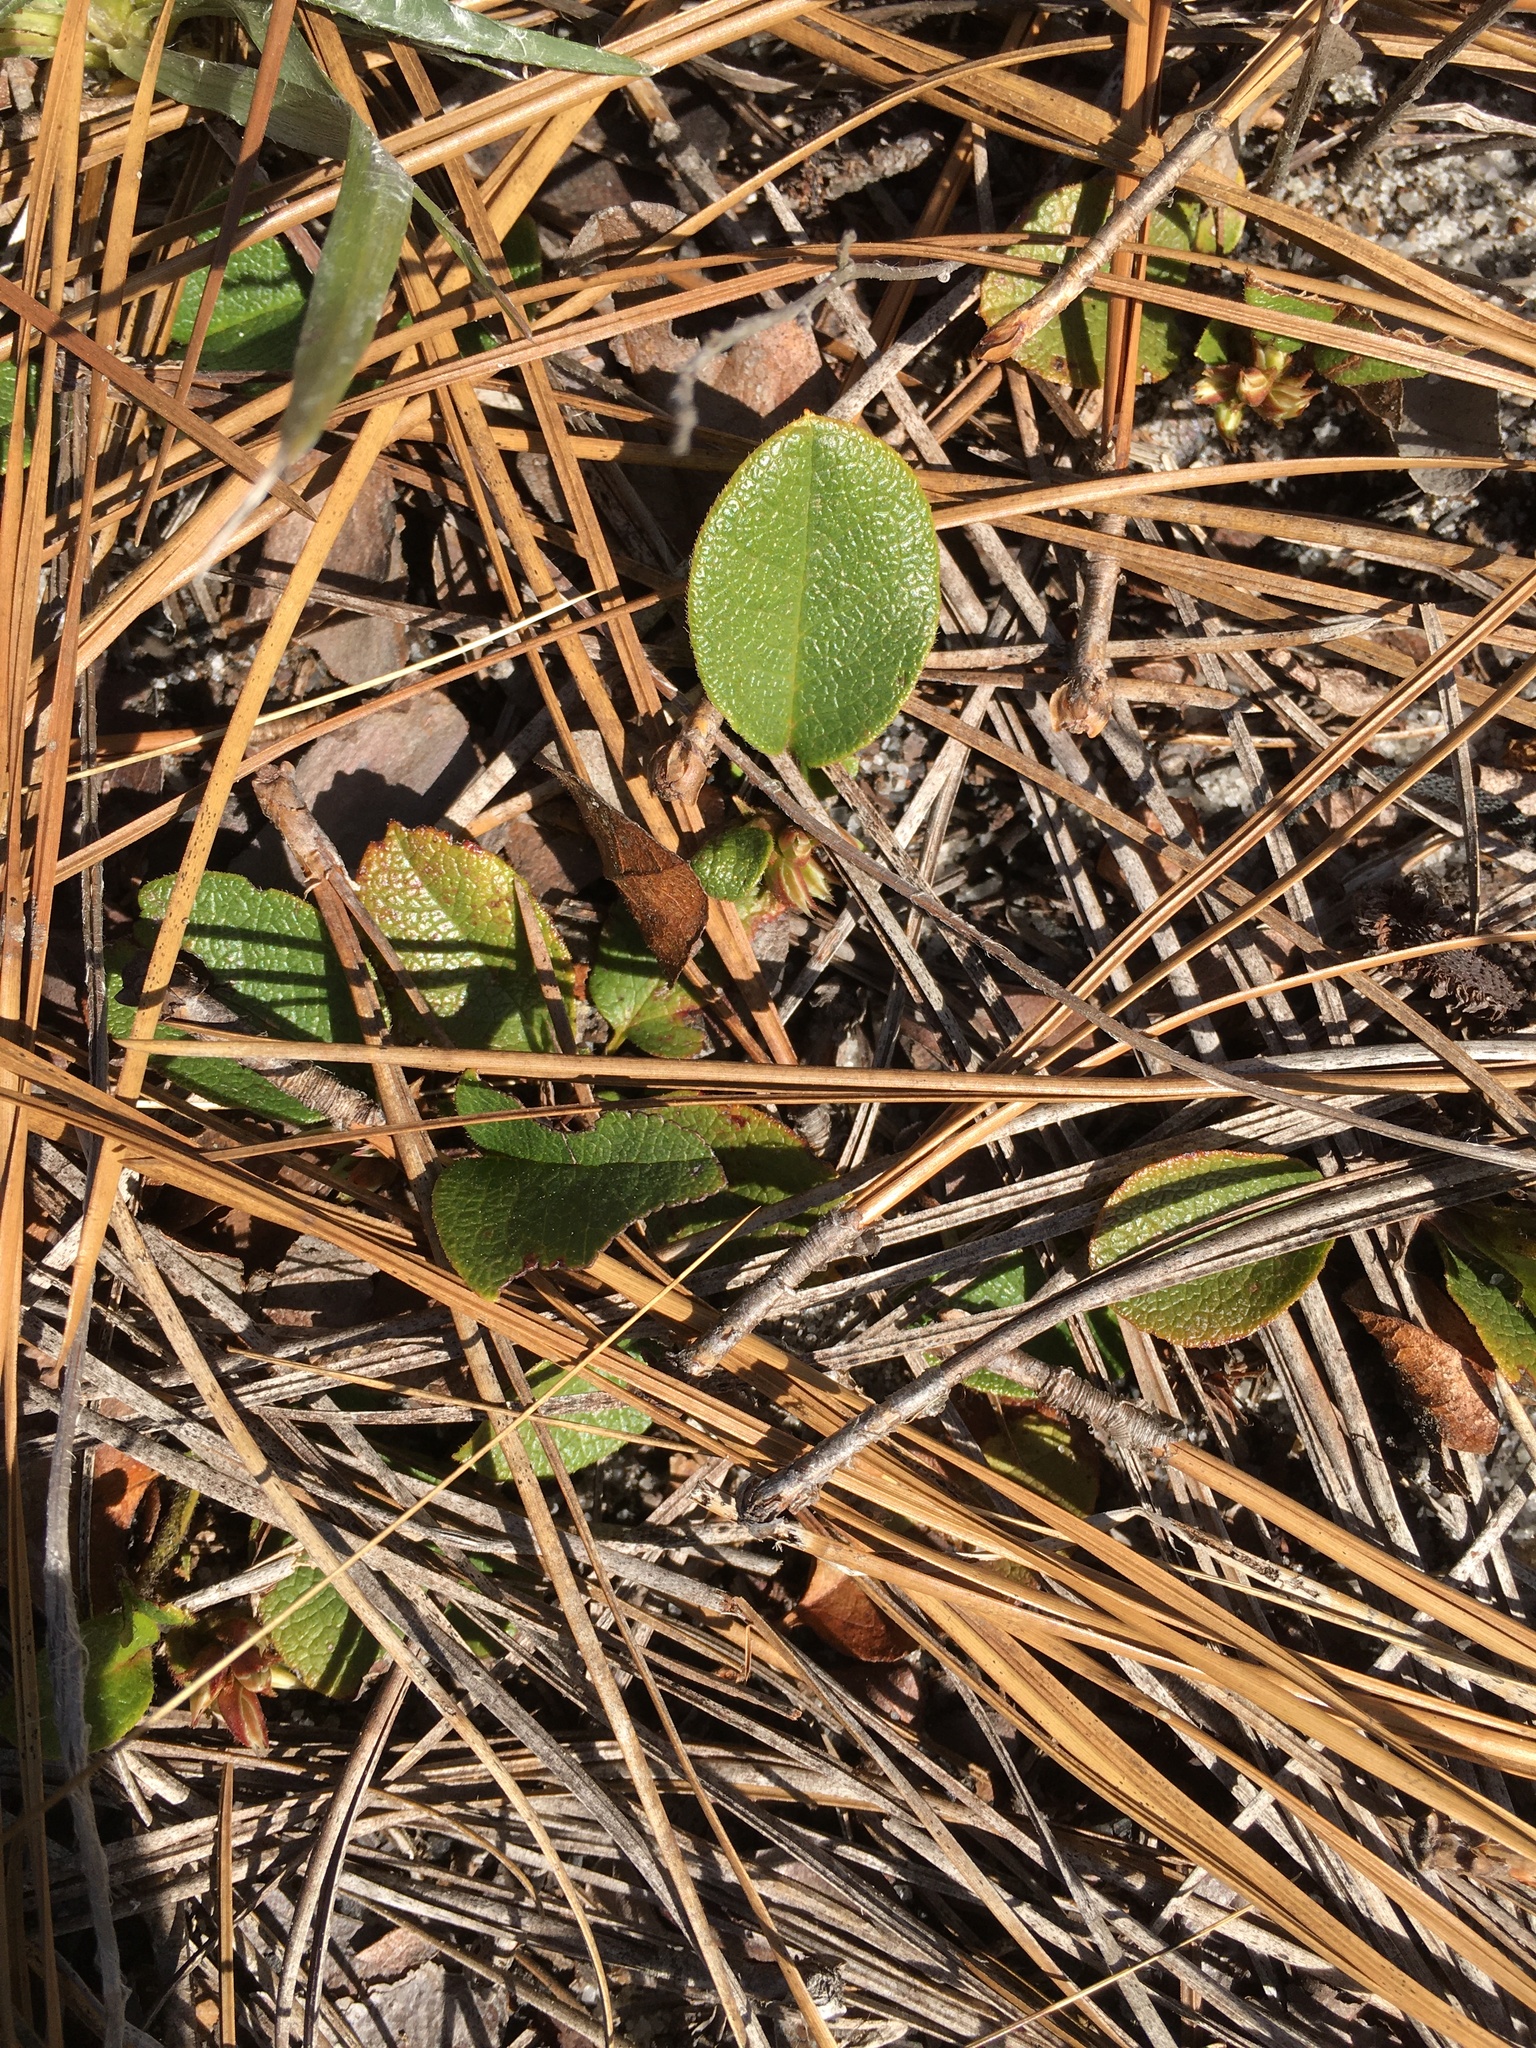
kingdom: Plantae
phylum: Tracheophyta
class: Magnoliopsida
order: Ericales
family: Ericaceae
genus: Epigaea
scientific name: Epigaea repens
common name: Gravelroot
